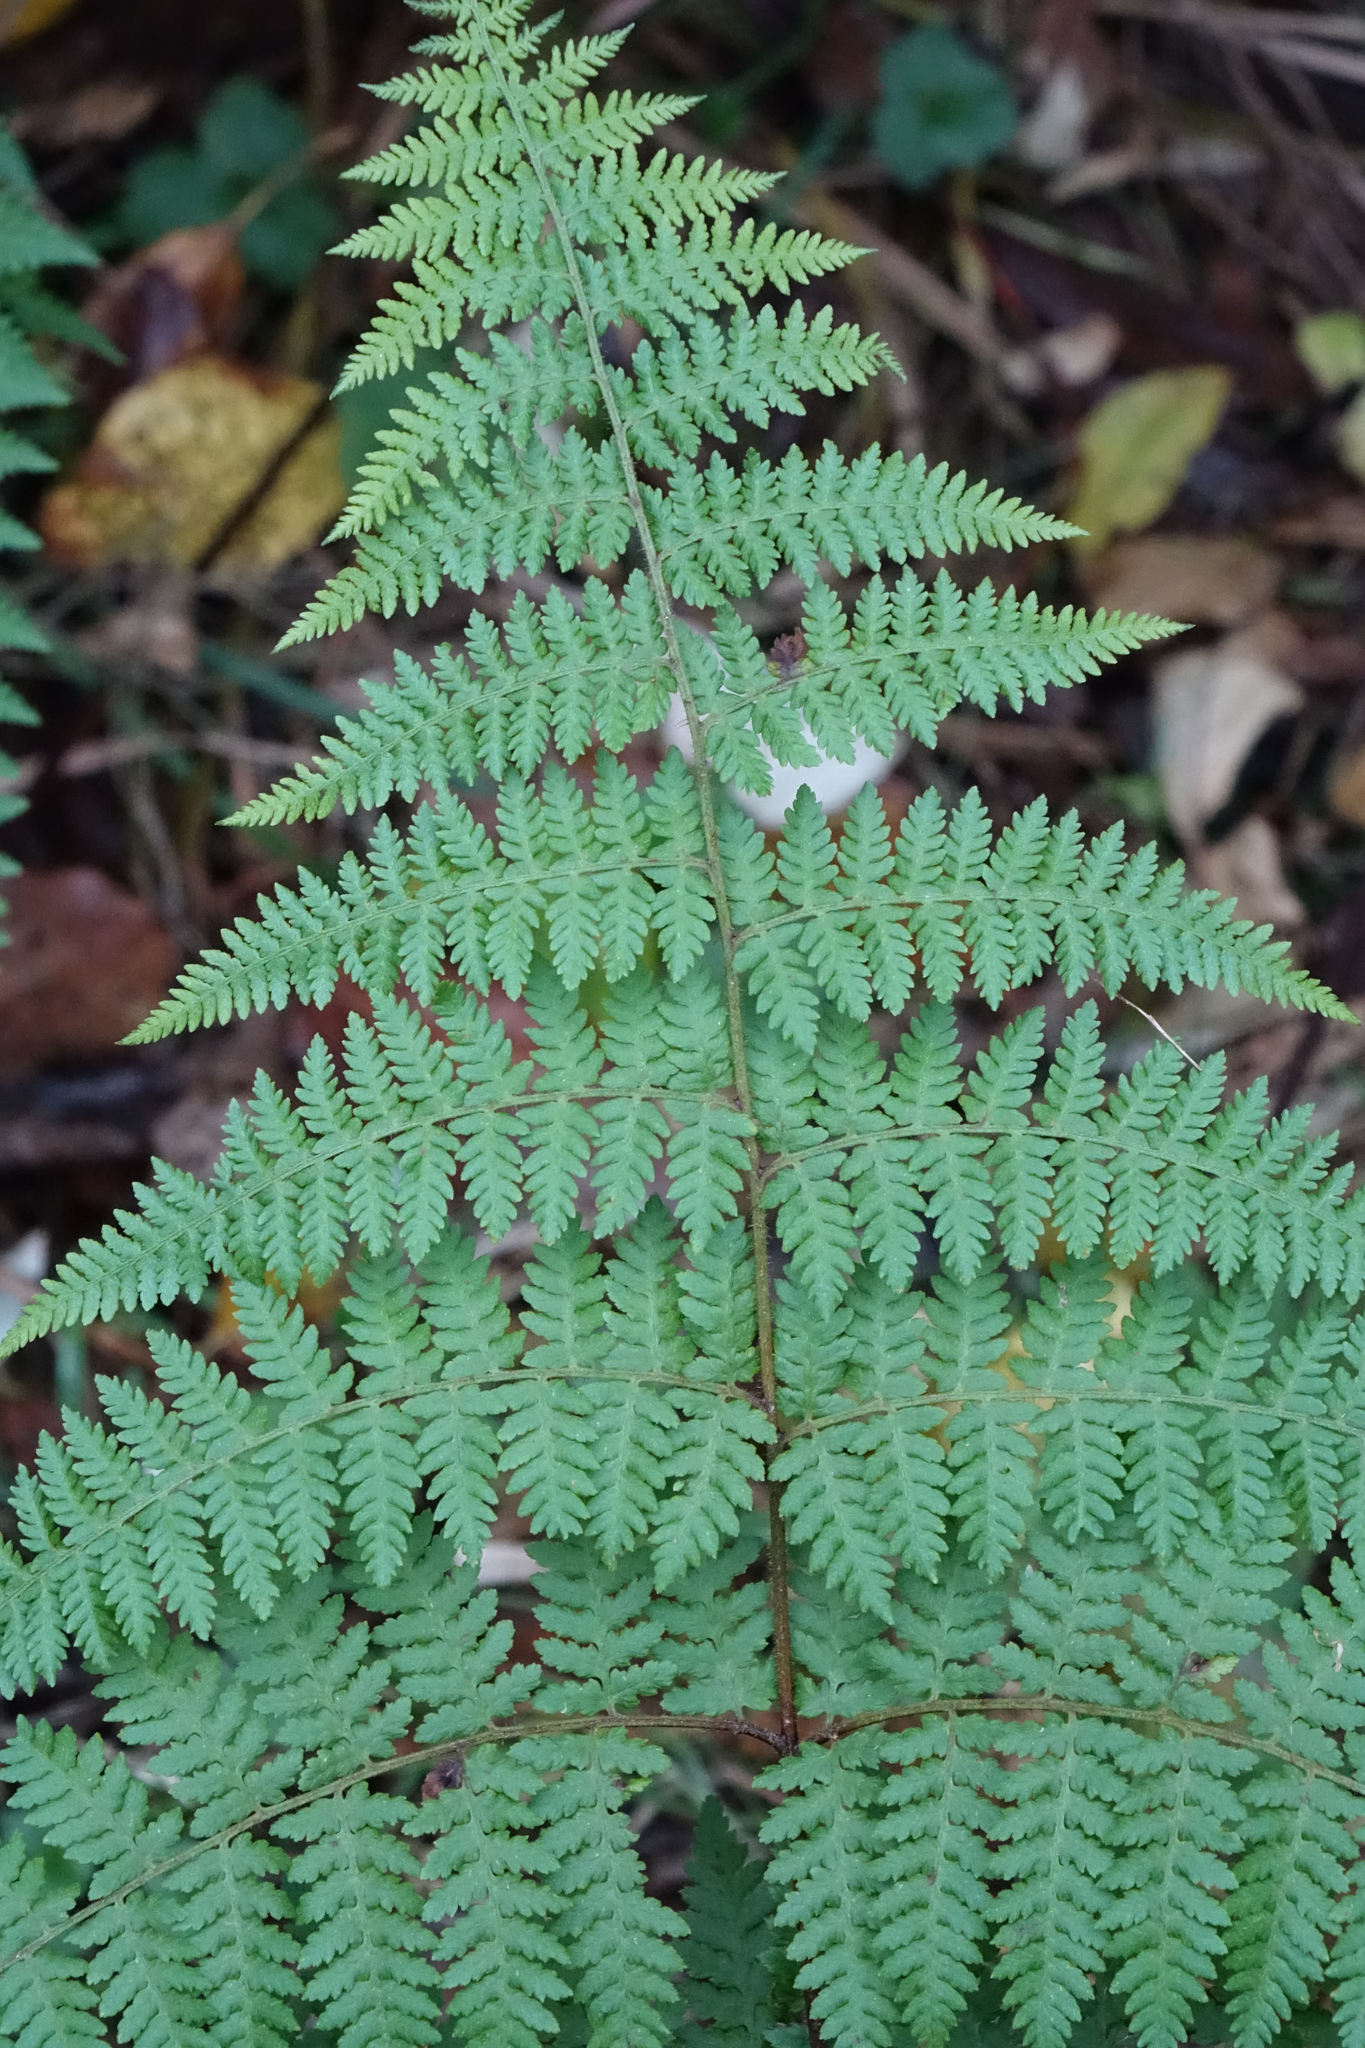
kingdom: Plantae
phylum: Tracheophyta
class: Polypodiopsida
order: Polypodiales
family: Dennstaedtiaceae
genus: Hypolepis
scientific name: Hypolepis ambigua
